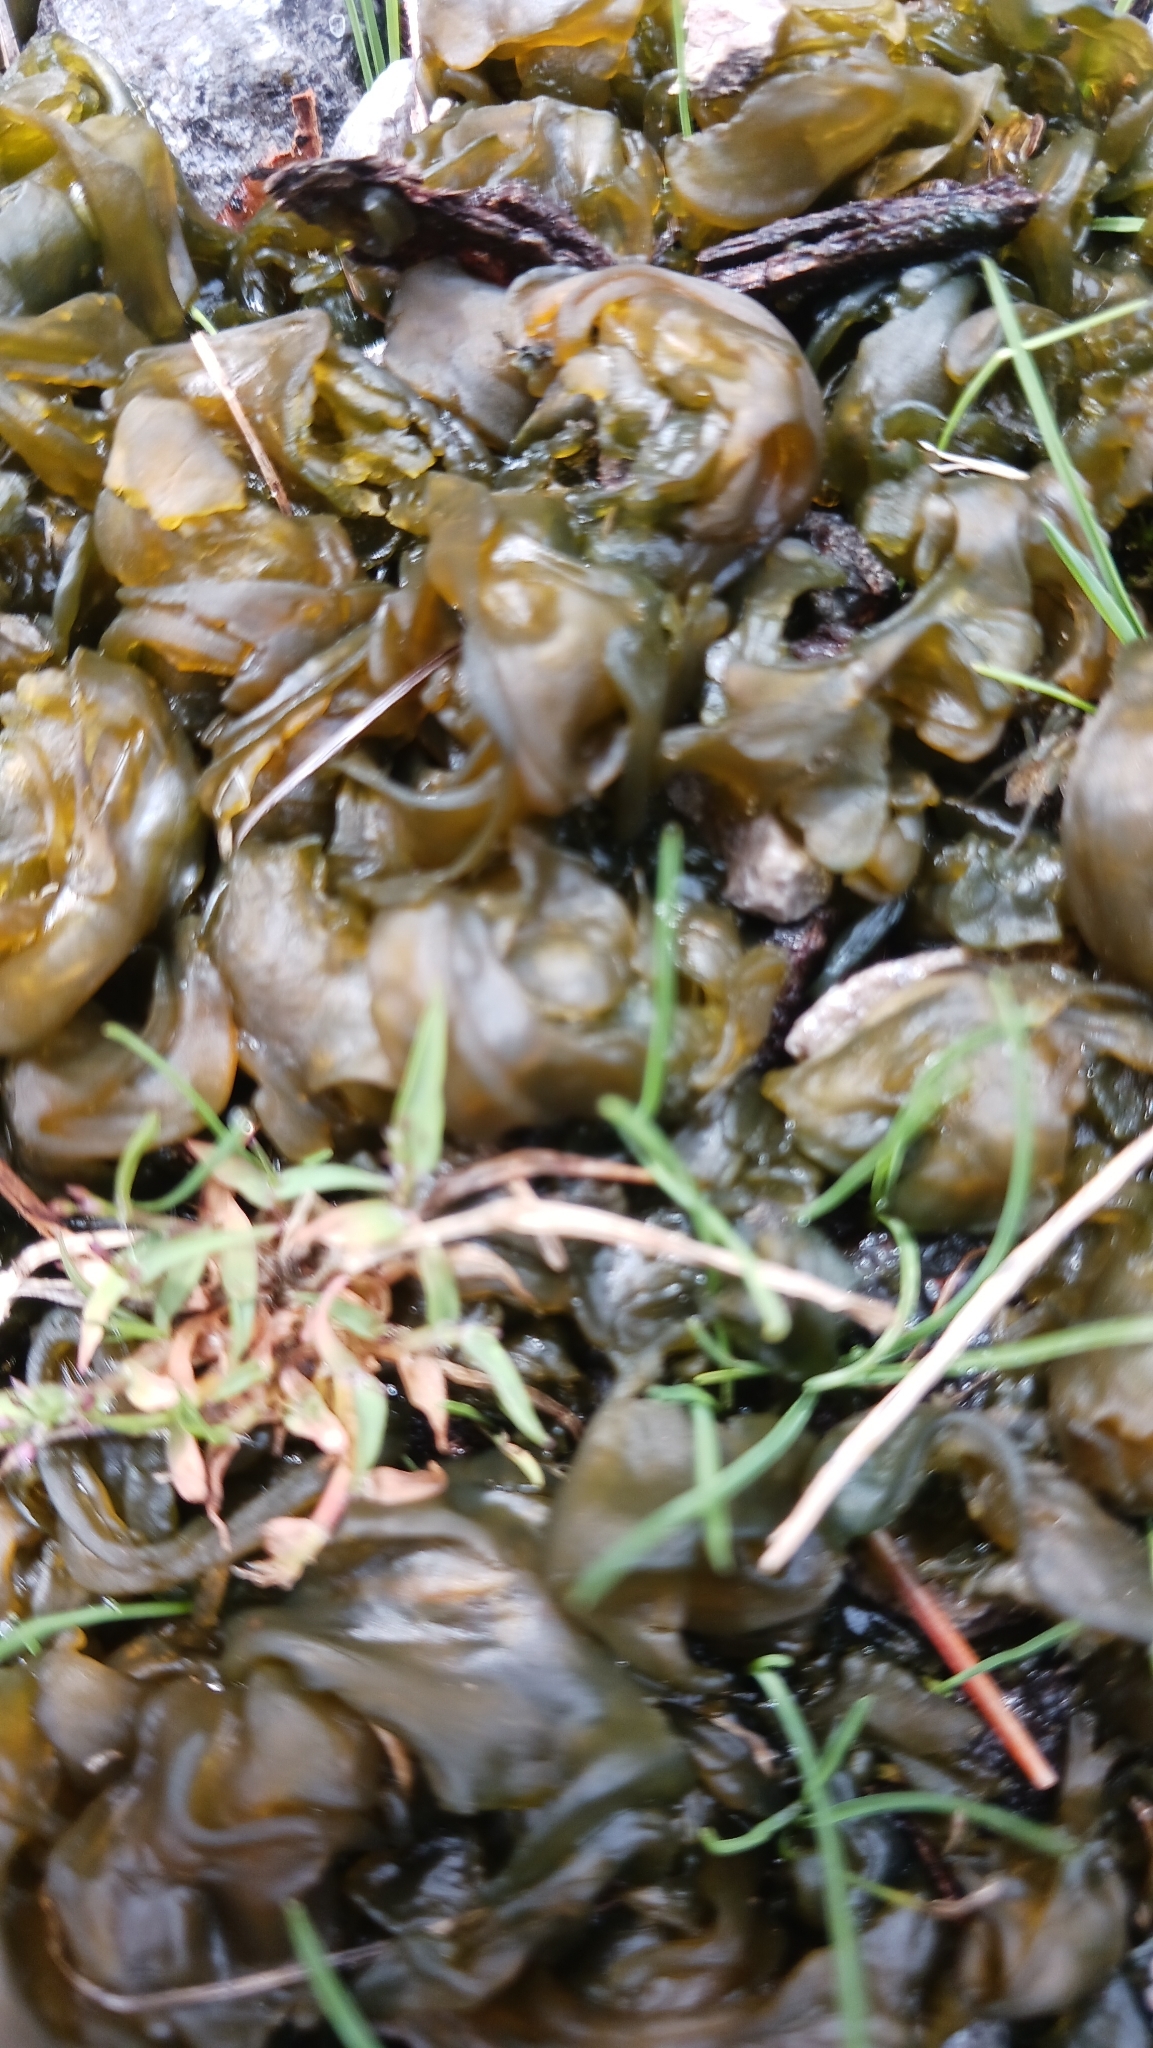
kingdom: Bacteria
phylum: Cyanobacteria
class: Cyanobacteriia
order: Cyanobacteriales
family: Nostocaceae
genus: Nostoc
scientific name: Nostoc commune
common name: Star jelly
